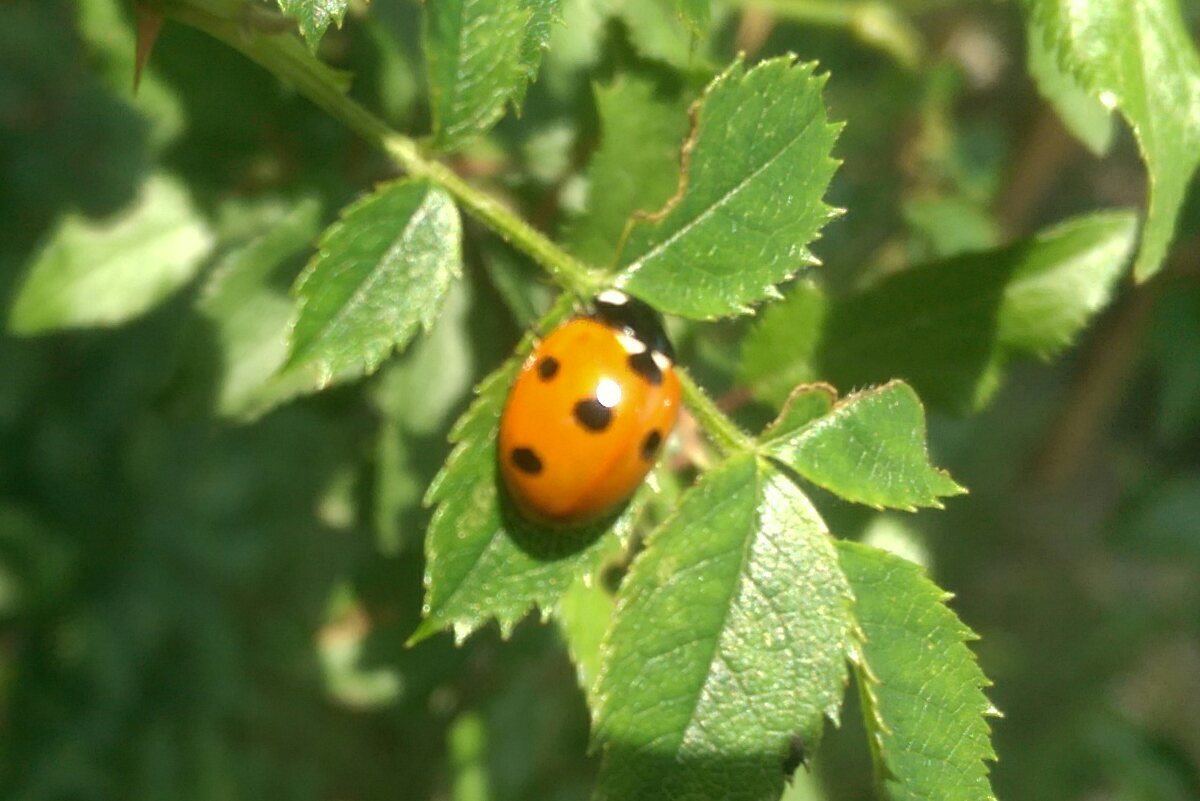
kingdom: Animalia
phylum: Arthropoda
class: Insecta
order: Coleoptera
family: Coccinellidae
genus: Coccinella
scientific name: Coccinella septempunctata
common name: Sevenspotted lady beetle
